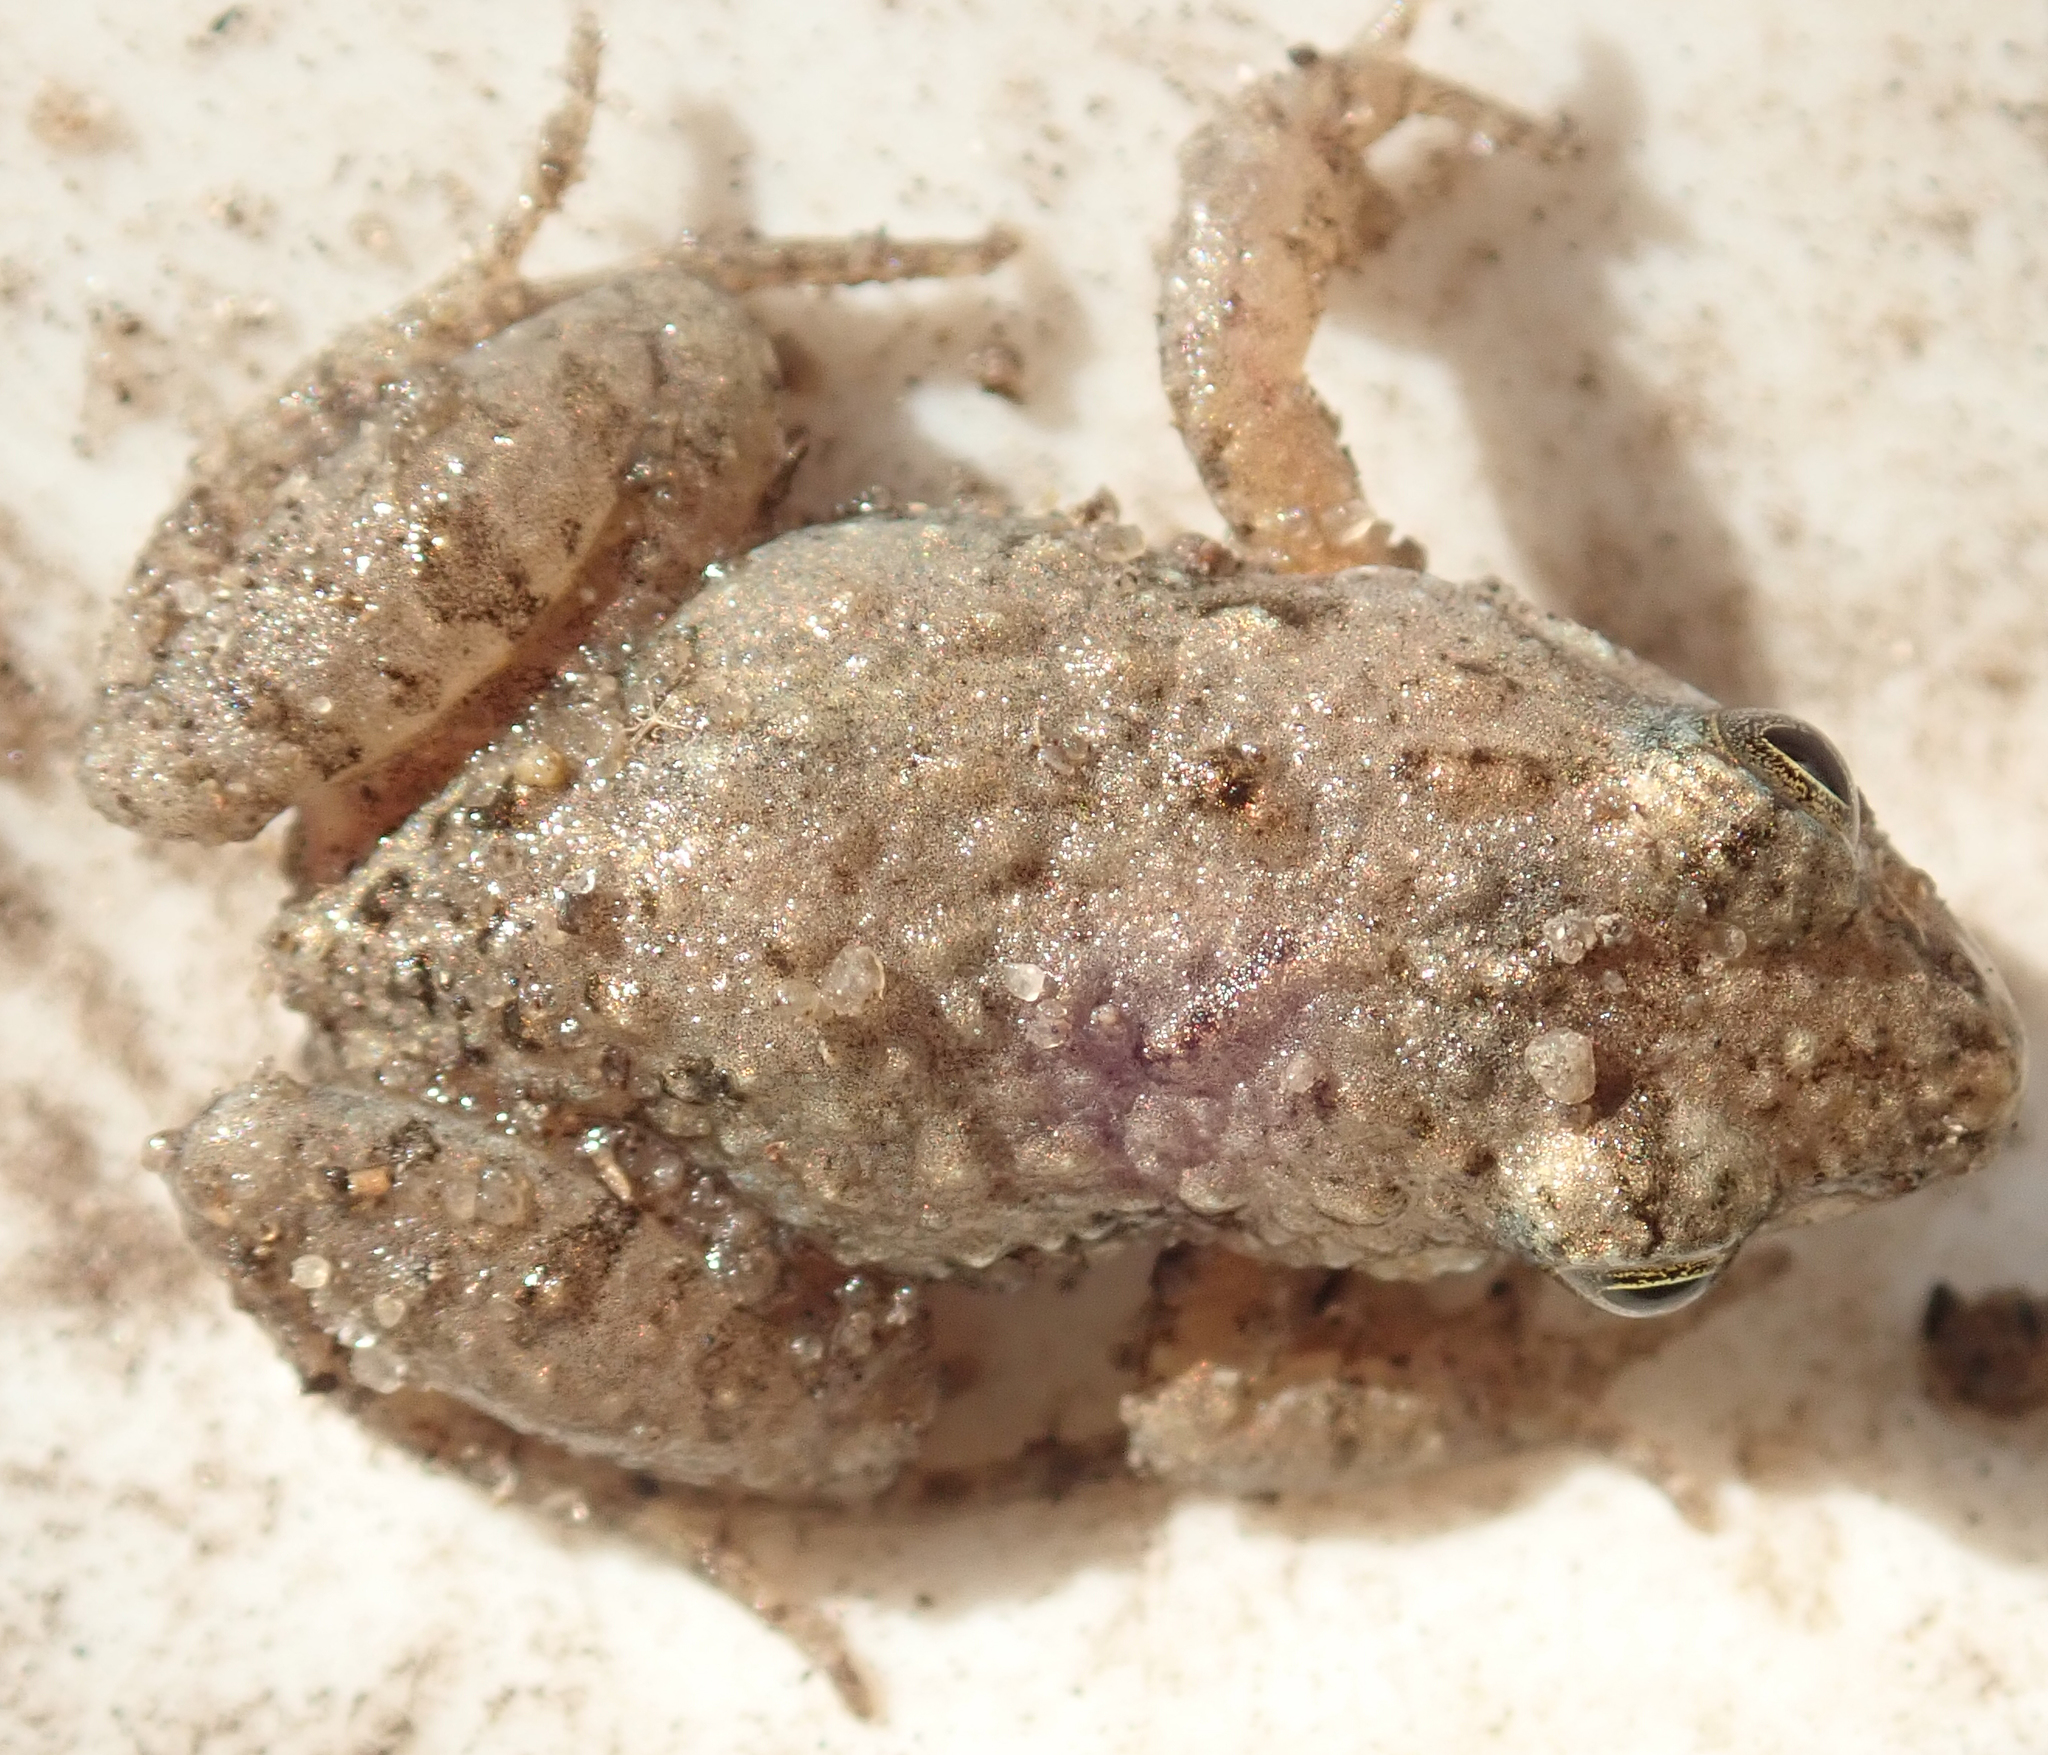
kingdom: Animalia
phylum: Chordata
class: Amphibia
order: Anura
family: Phrynobatrachidae
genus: Phrynobatrachus
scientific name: Phrynobatrachus mababiensis
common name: Dwarf puddle frog
